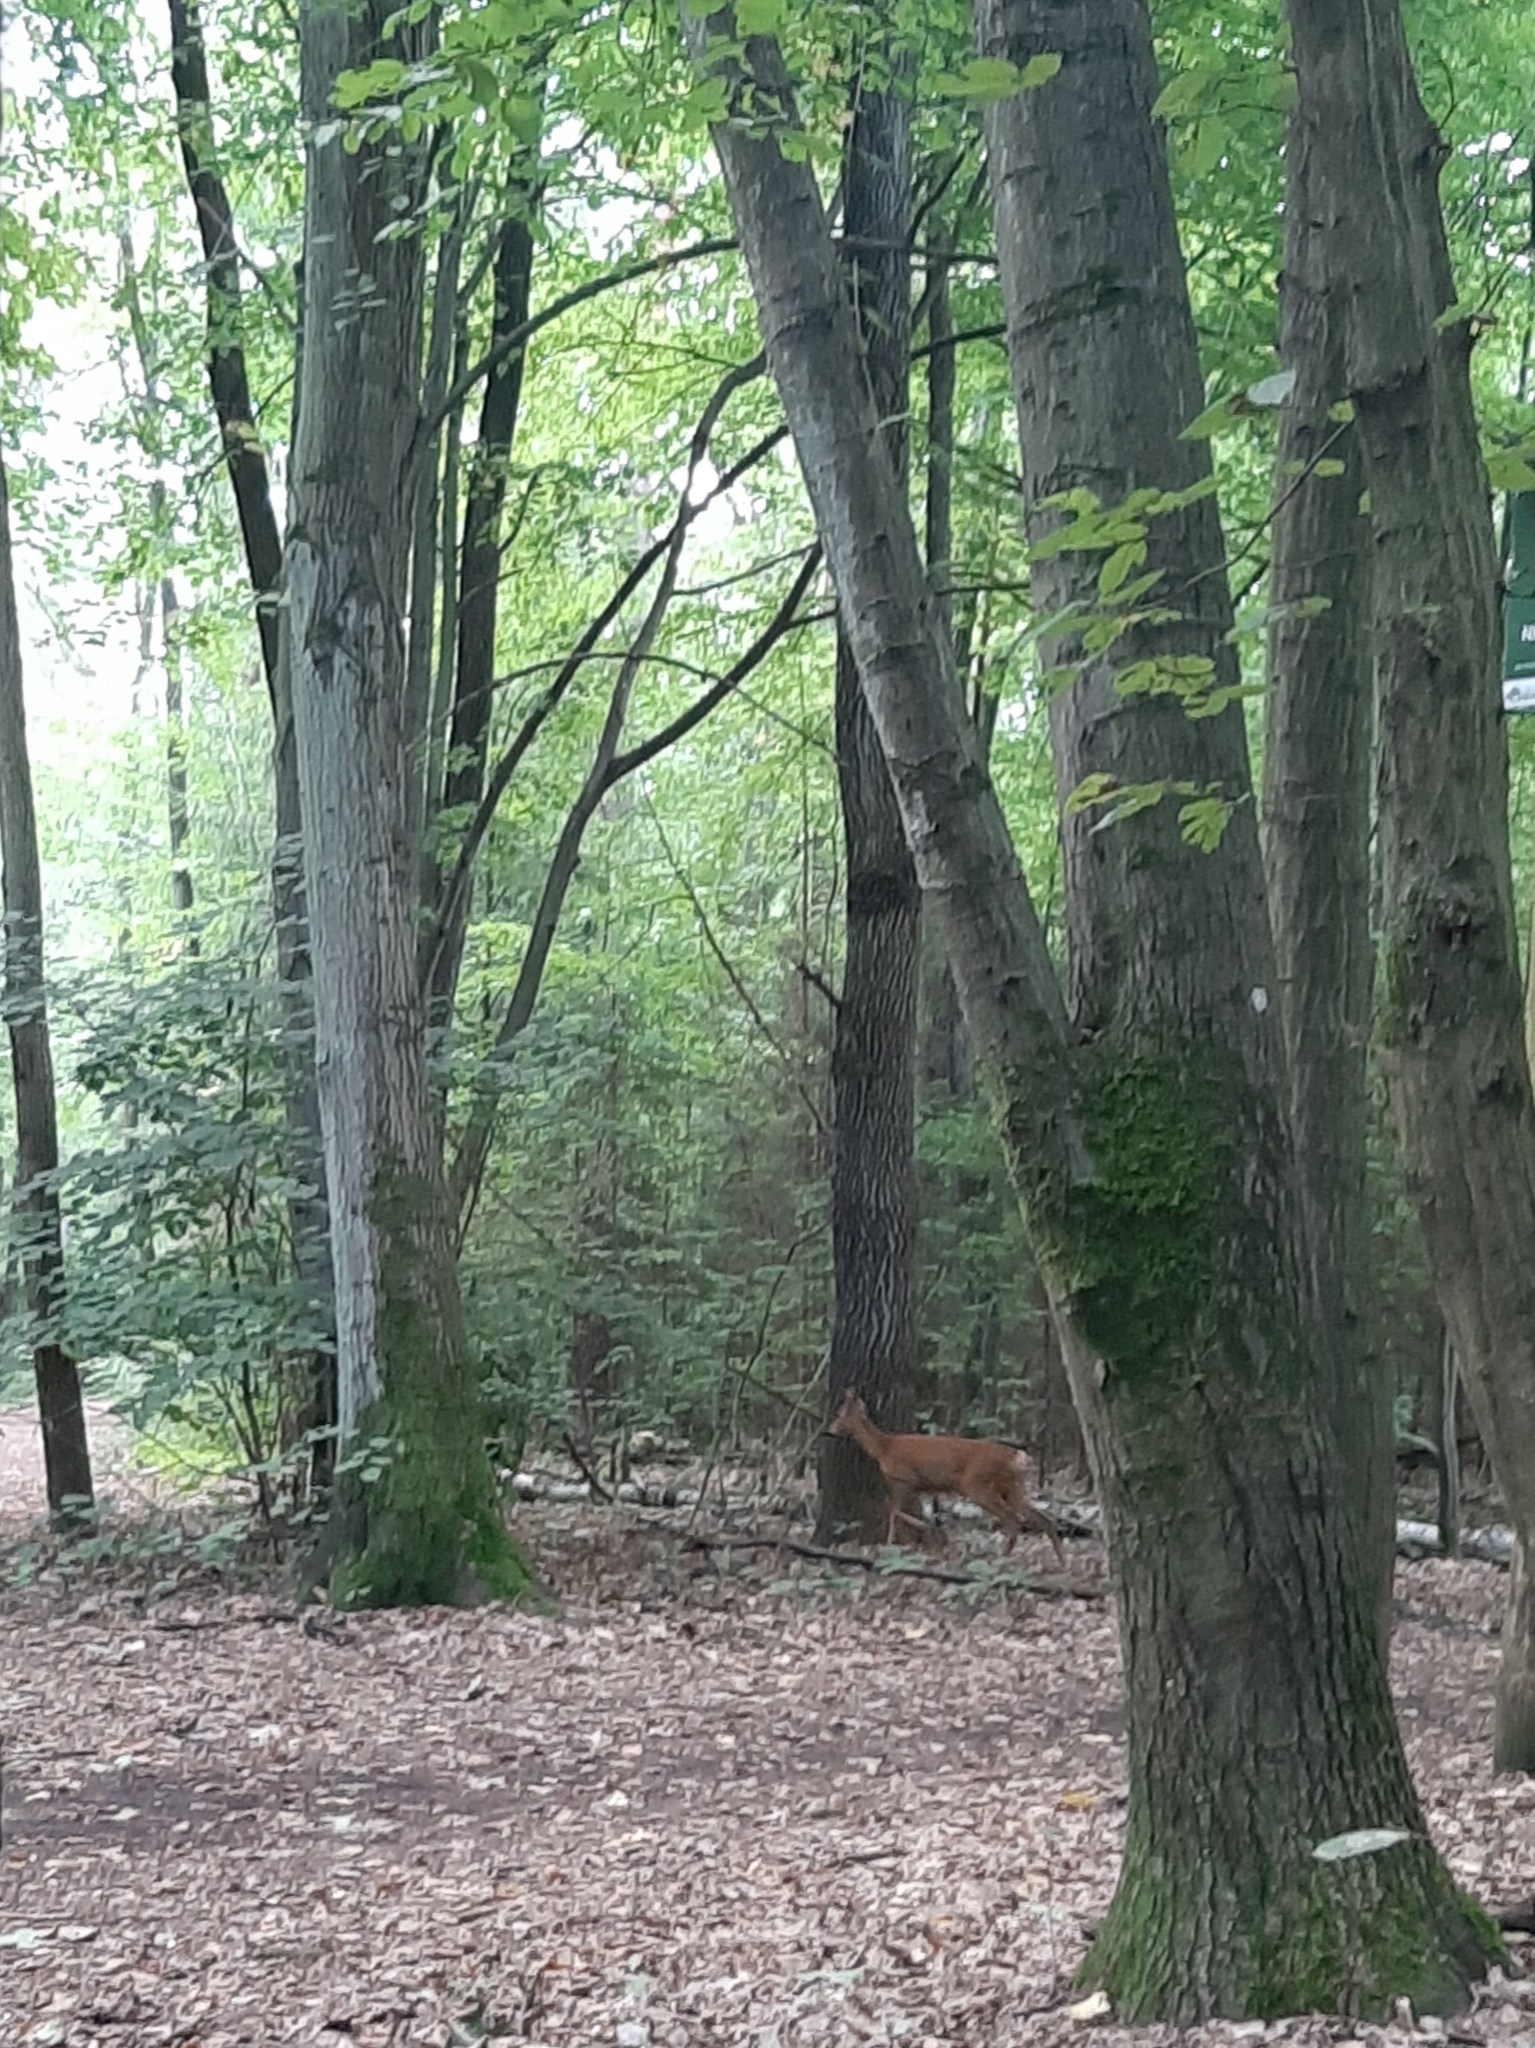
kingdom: Animalia
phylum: Chordata
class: Mammalia
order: Artiodactyla
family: Cervidae
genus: Capreolus
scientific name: Capreolus capreolus
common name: Western roe deer
